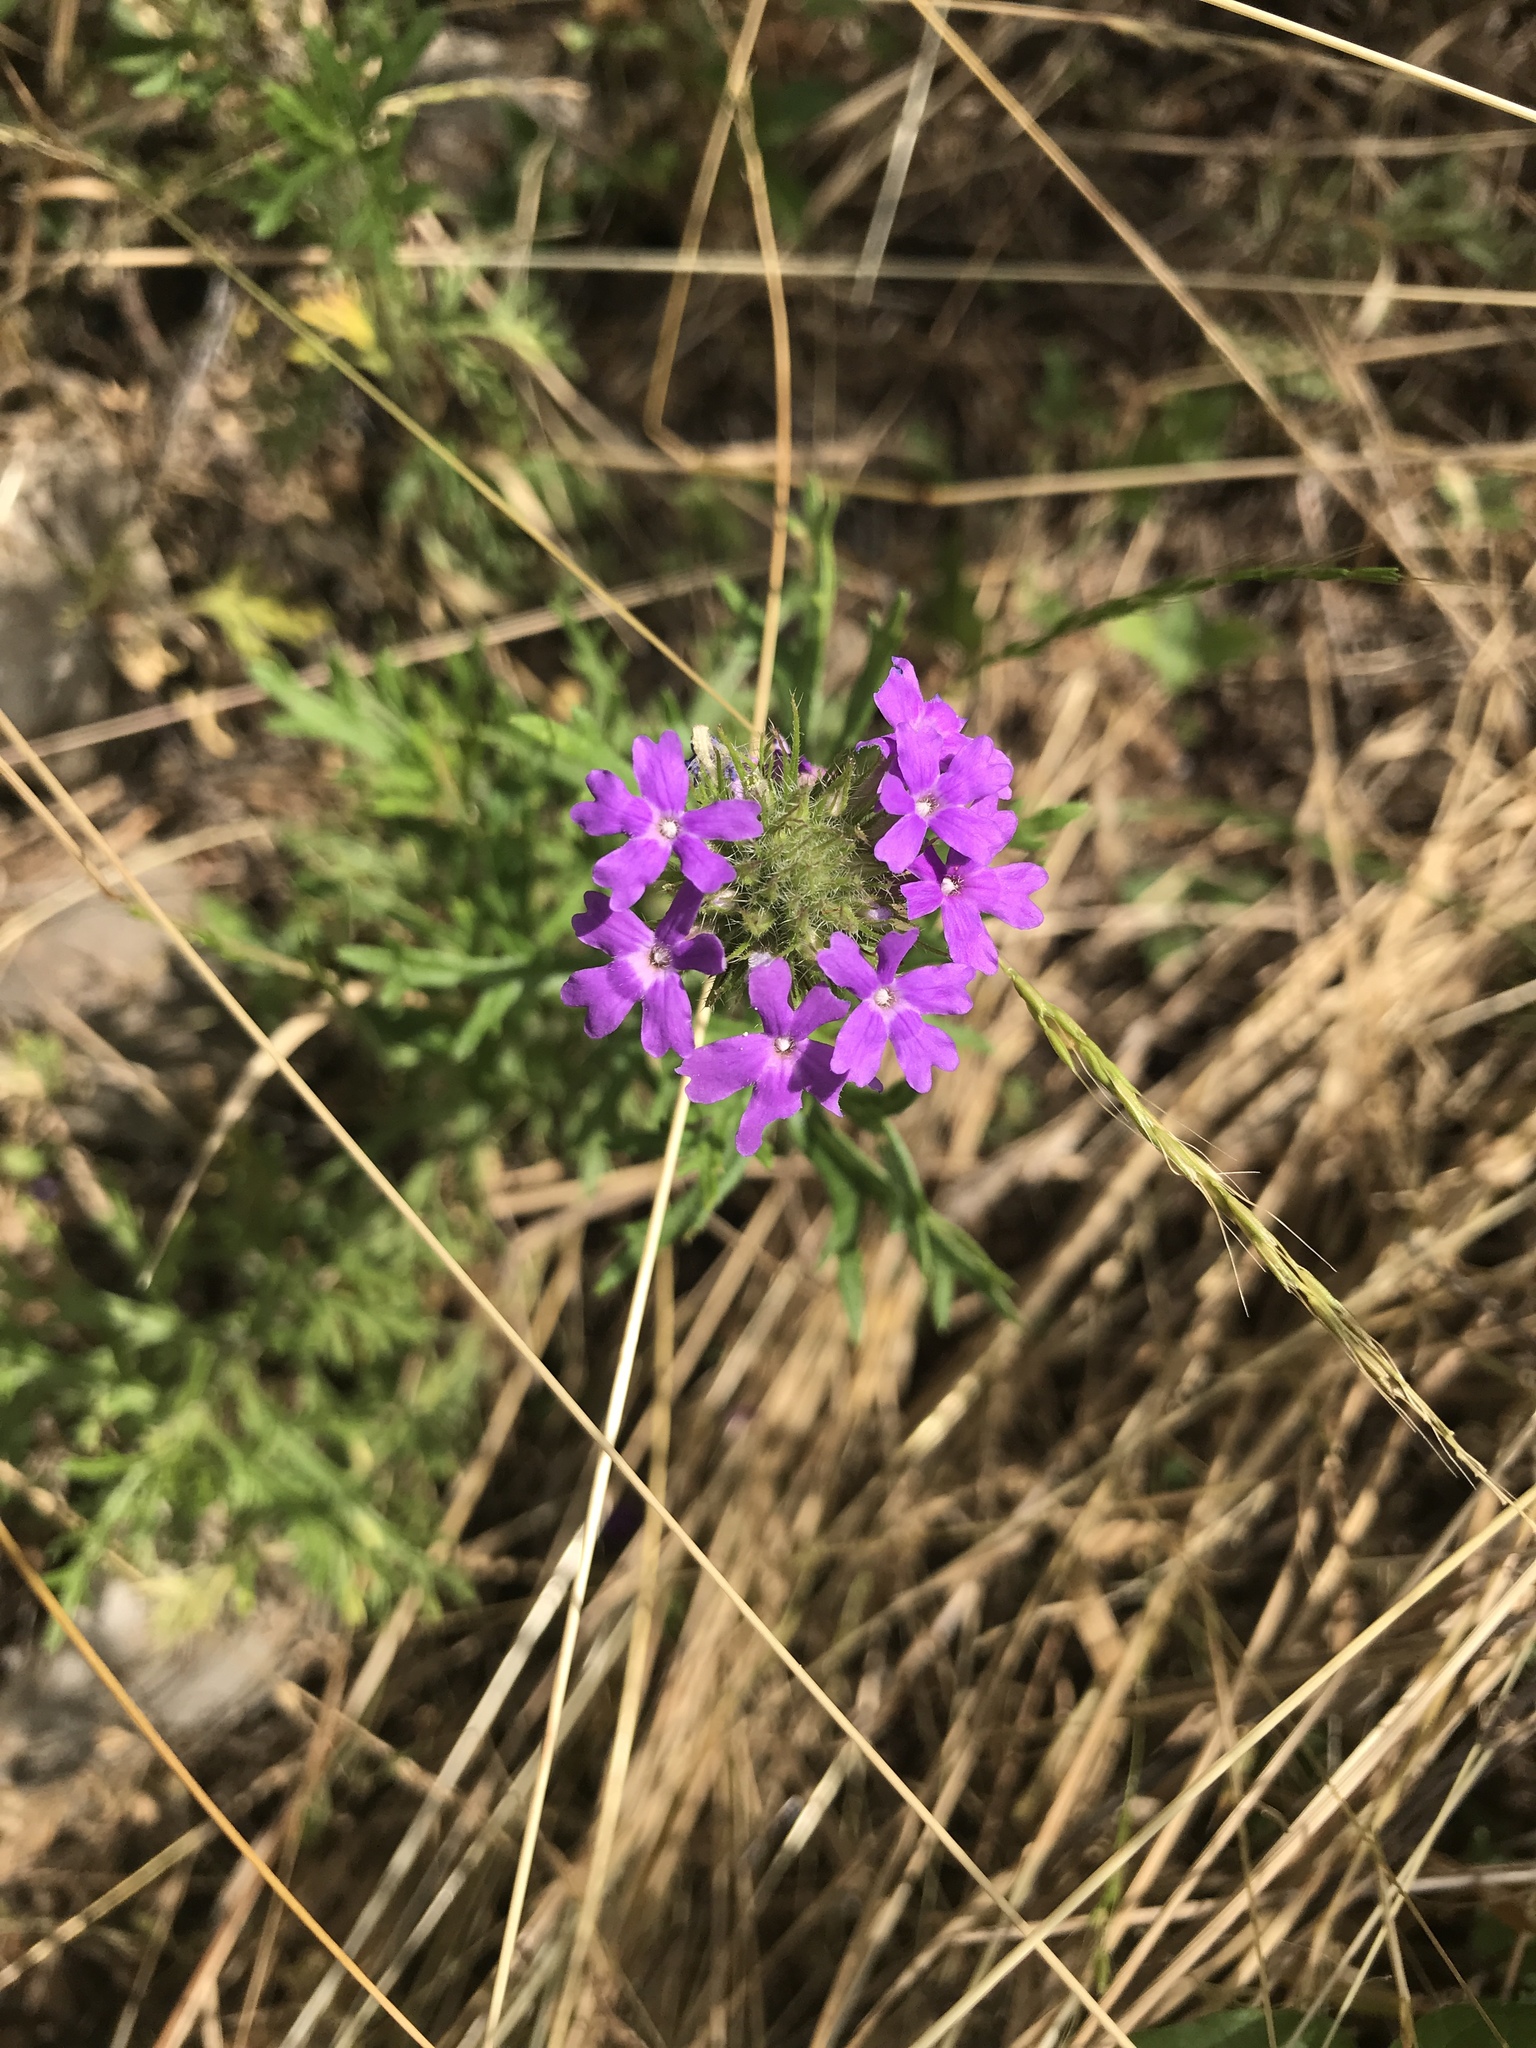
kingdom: Plantae
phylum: Tracheophyta
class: Magnoliopsida
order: Lamiales
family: Verbenaceae
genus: Verbena
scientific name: Verbena bipinnatifida
